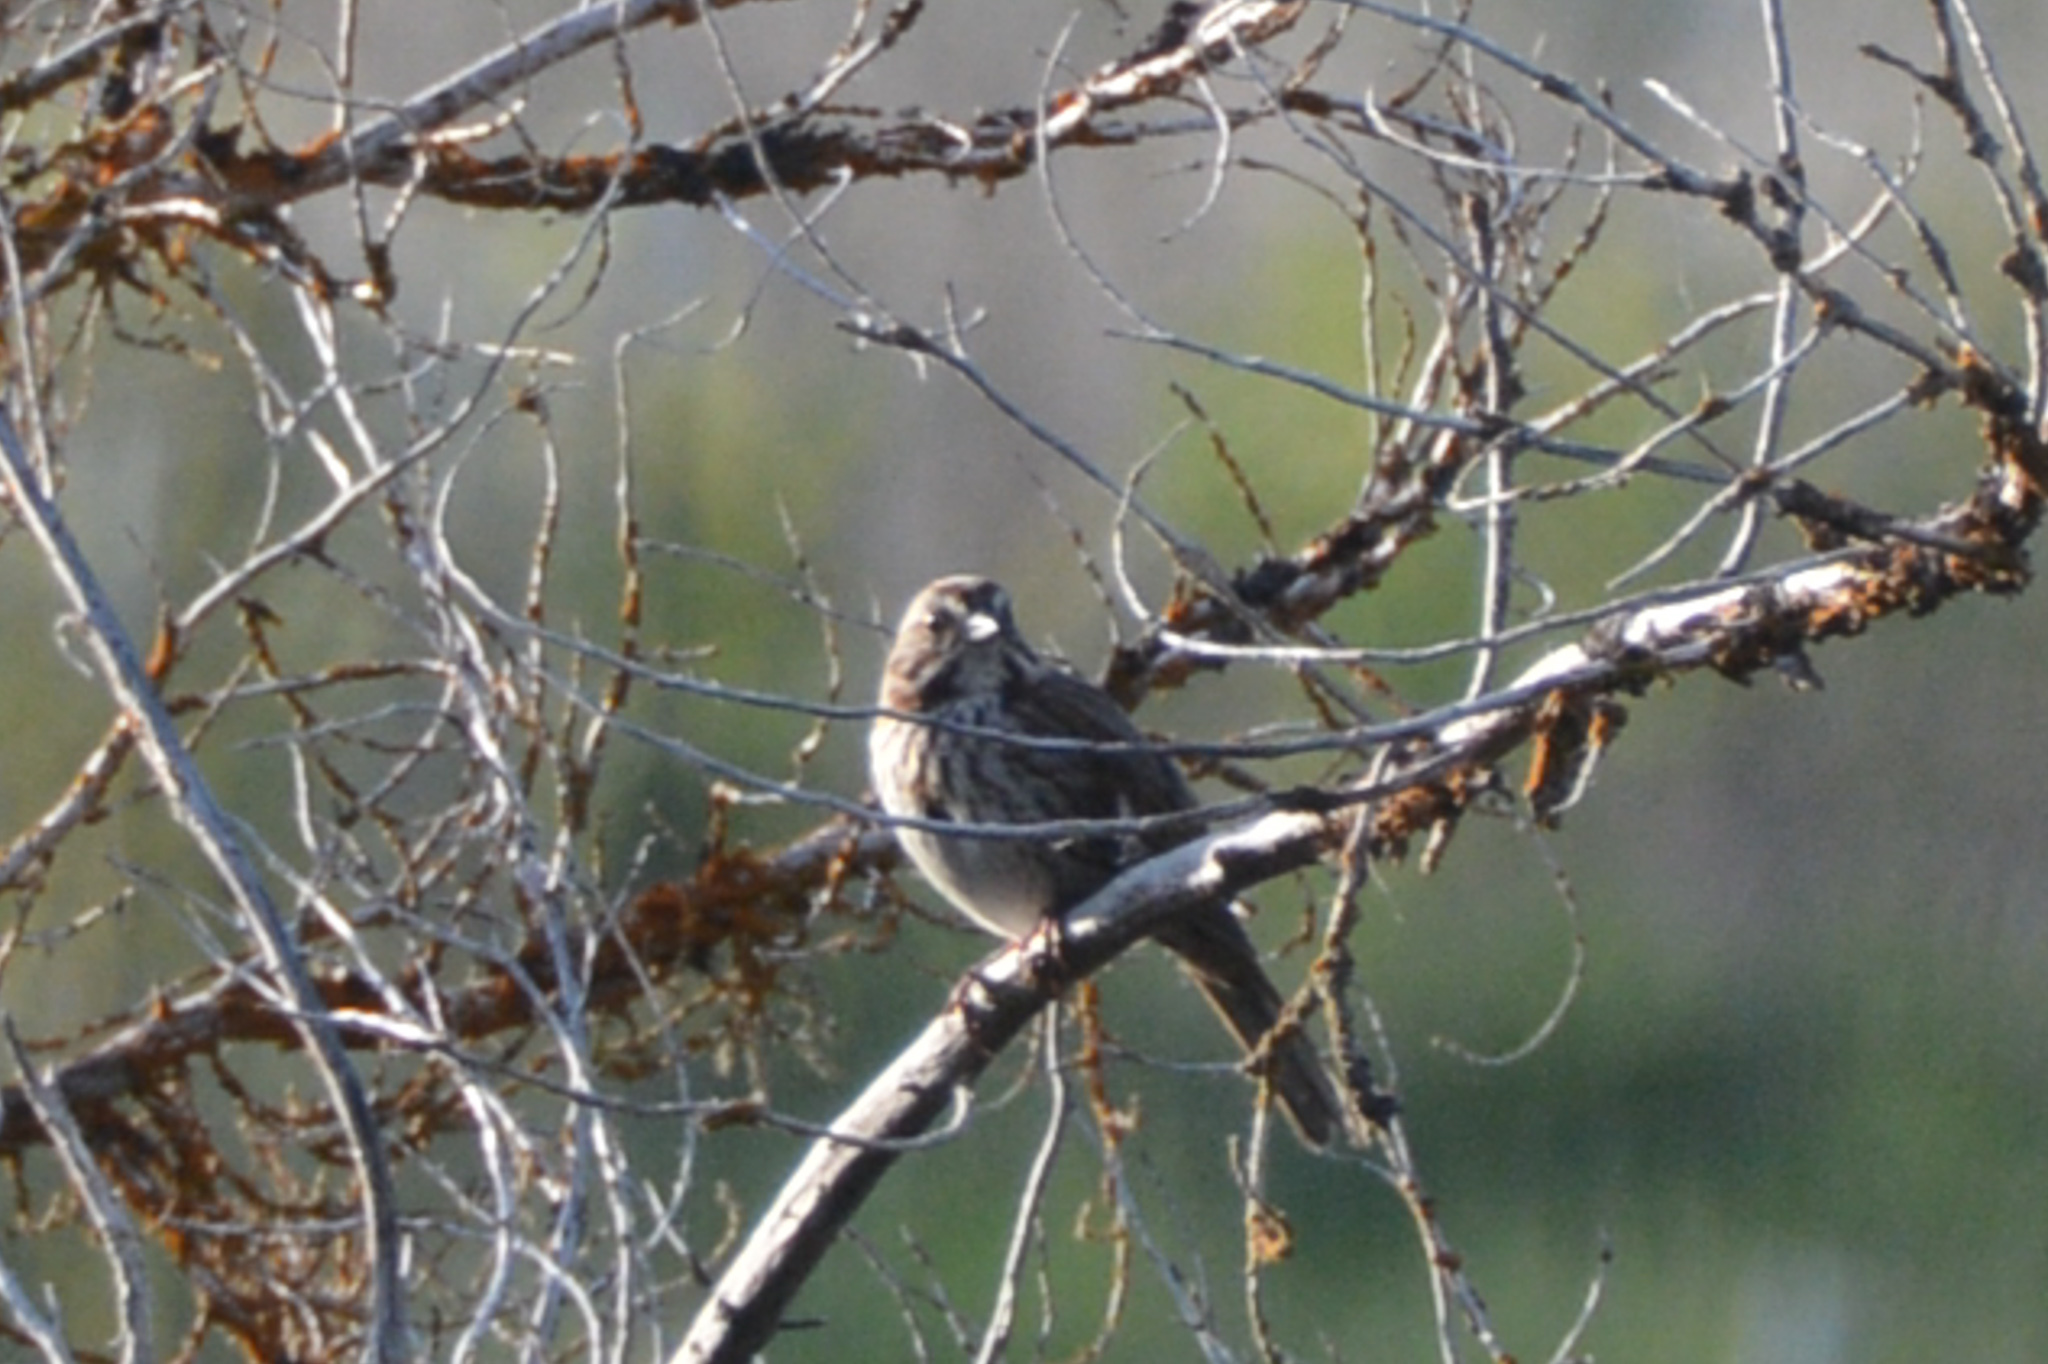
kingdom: Animalia
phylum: Chordata
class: Aves
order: Passeriformes
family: Passerellidae
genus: Melospiza
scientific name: Melospiza melodia
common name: Song sparrow
